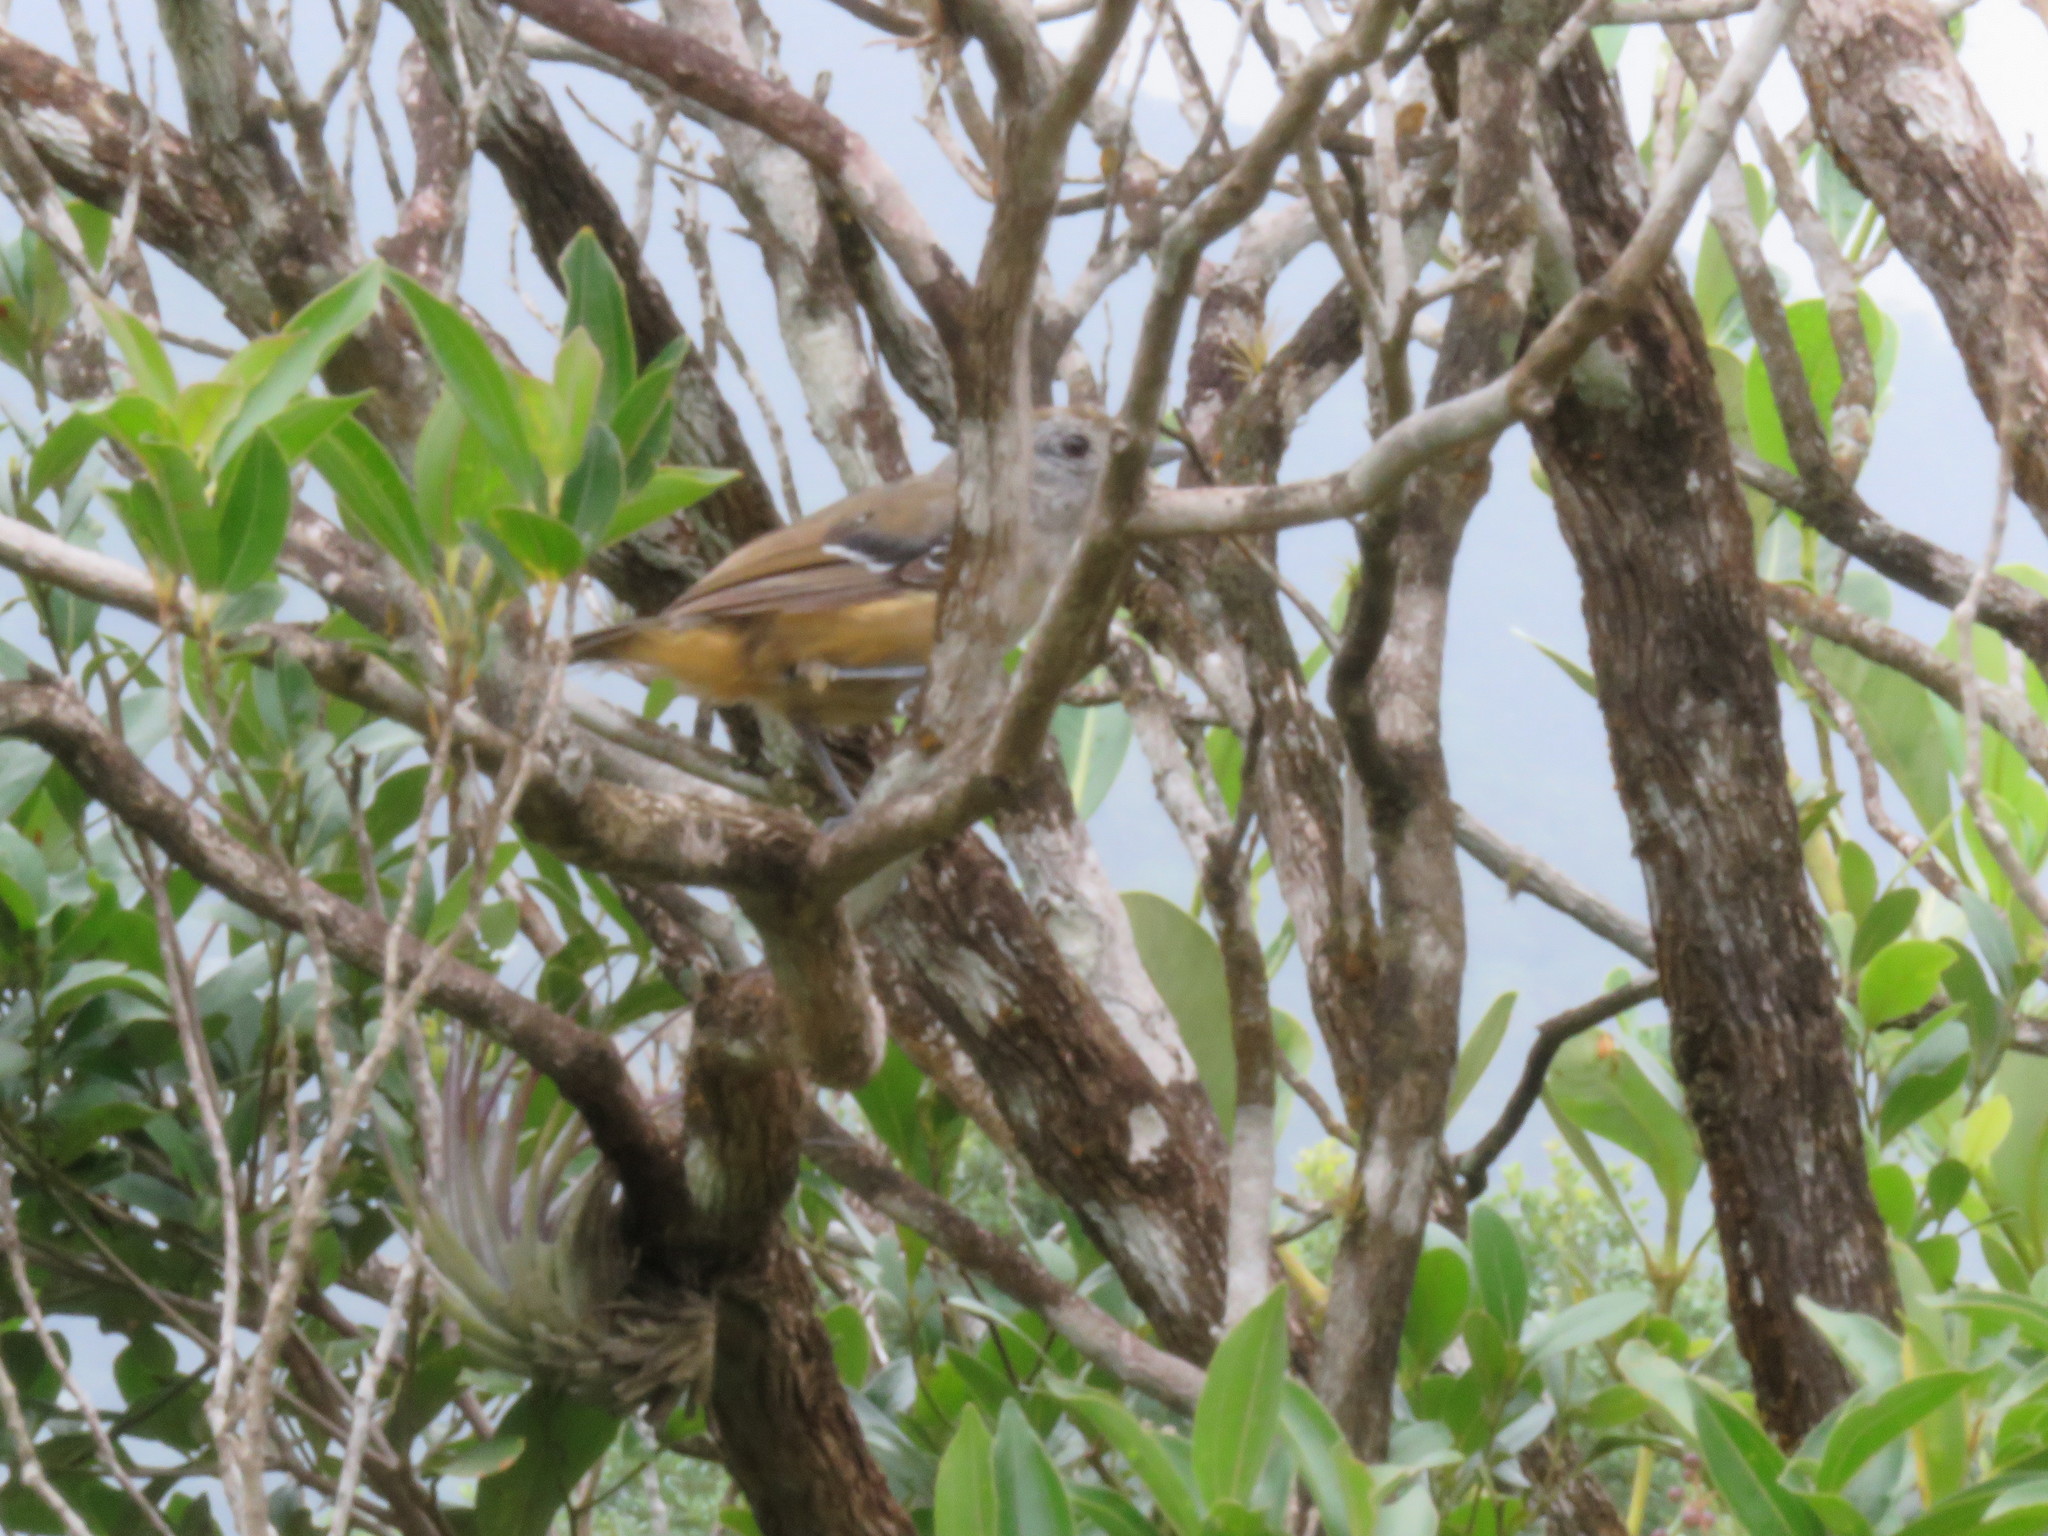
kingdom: Animalia
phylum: Chordata
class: Aves
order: Passeriformes
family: Thamnophilidae
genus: Thamnophilus
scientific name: Thamnophilus caerulescens
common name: Variable antshrike
